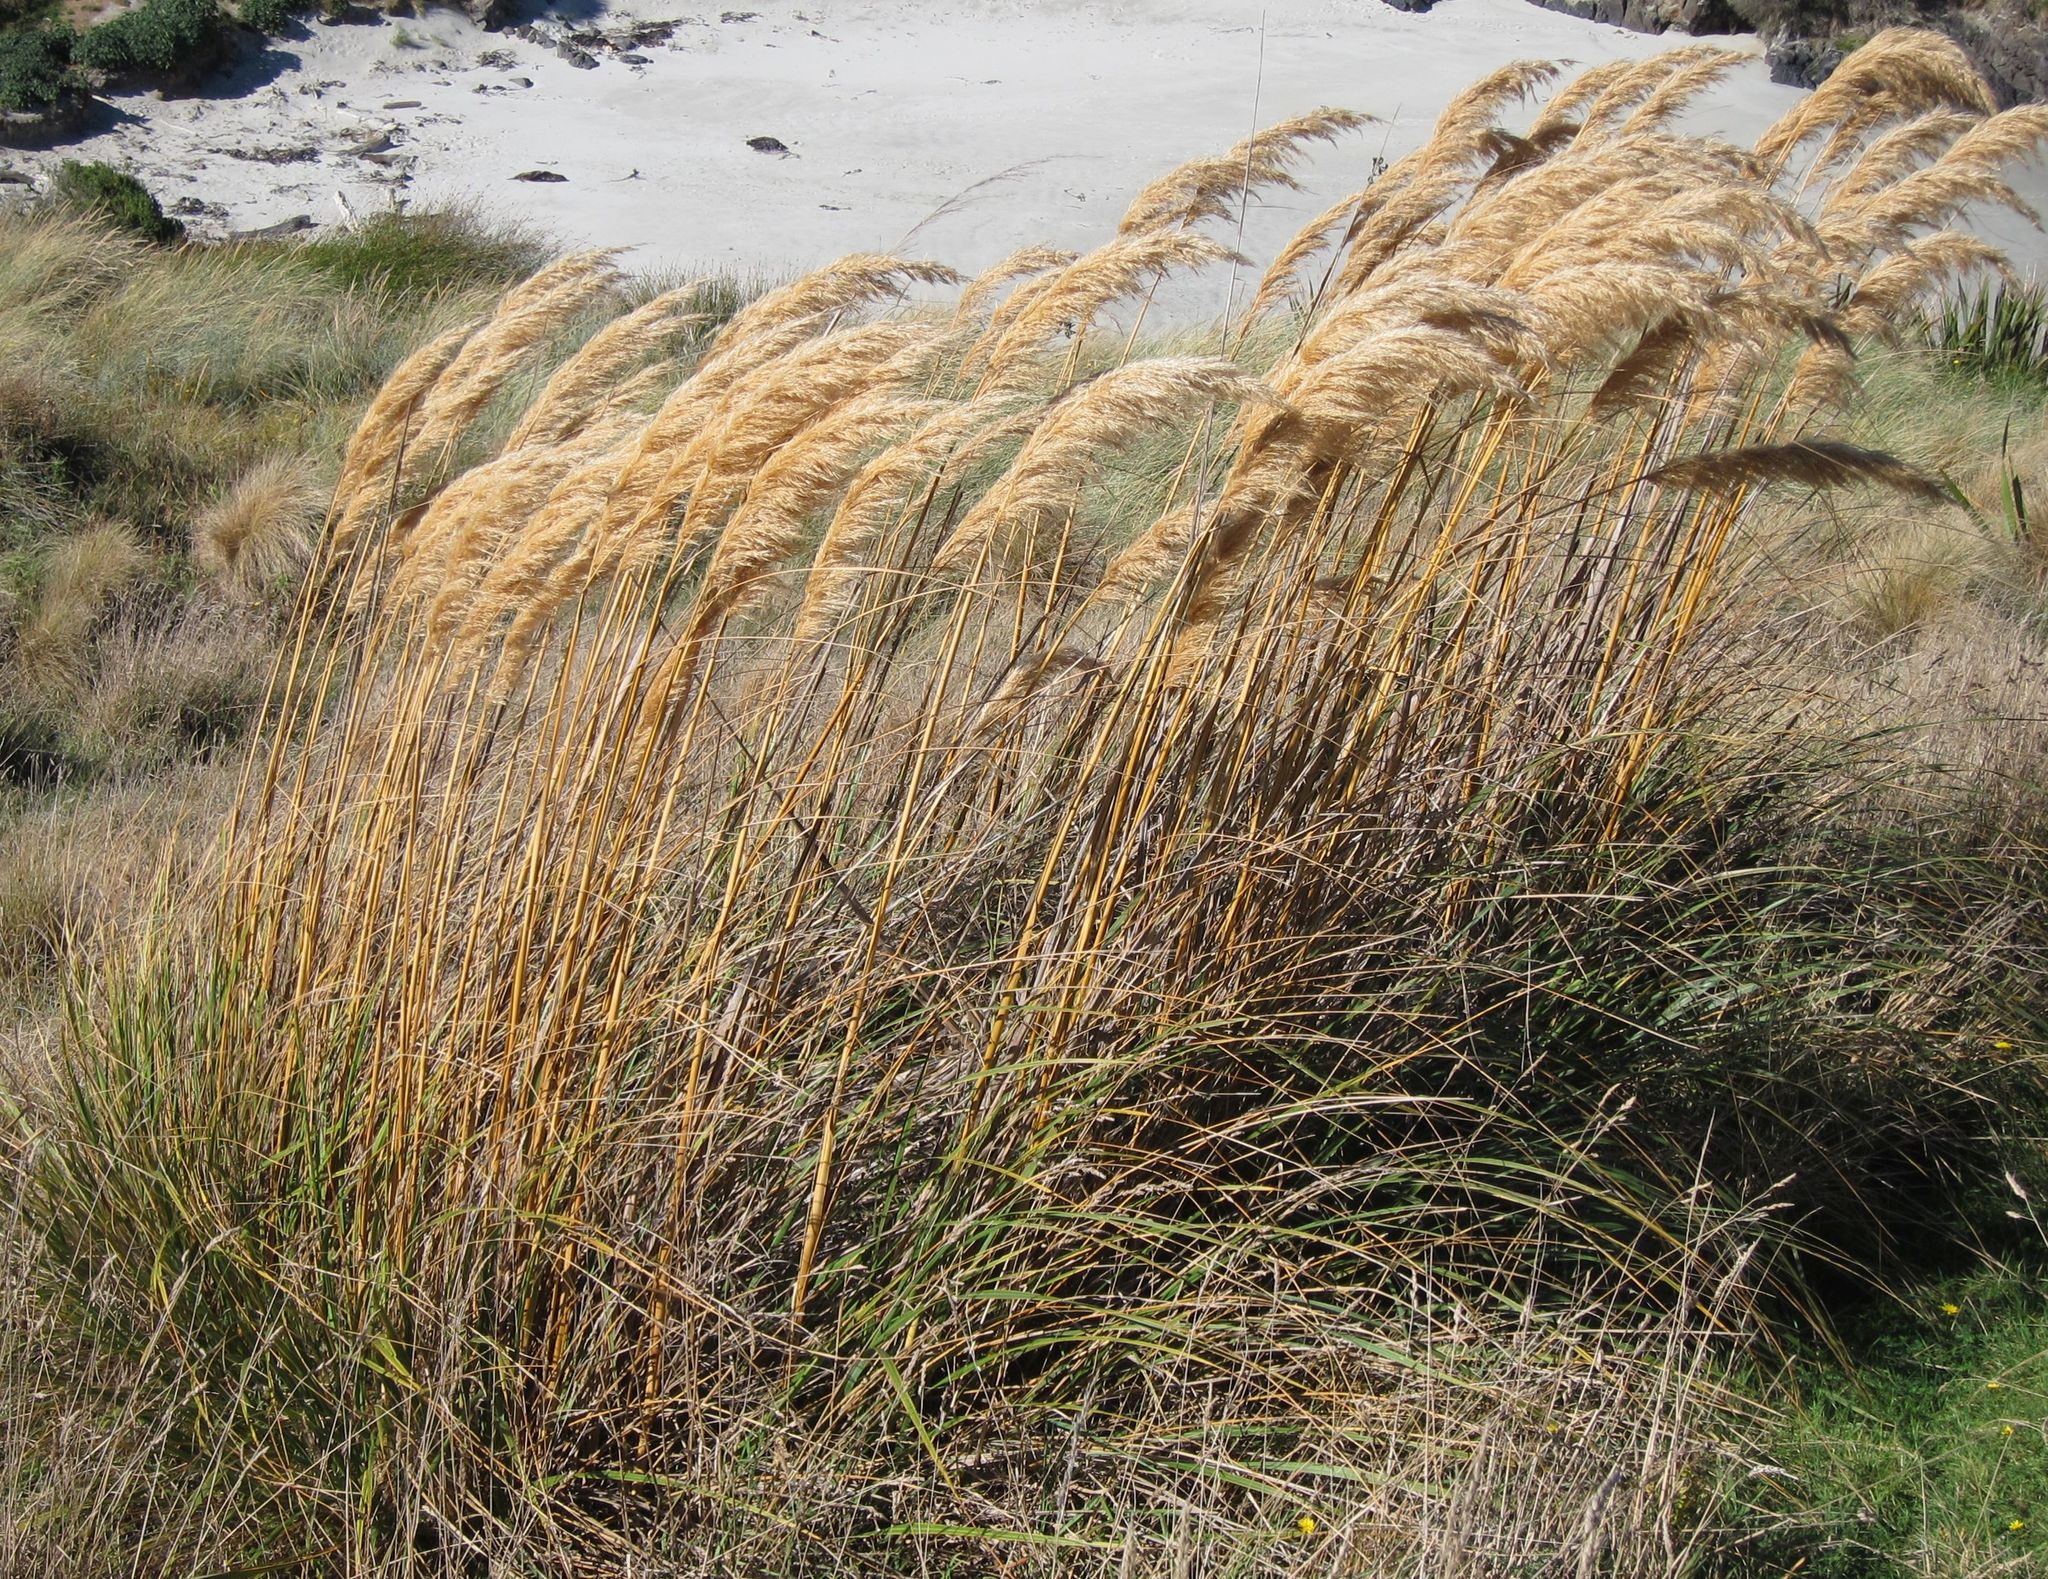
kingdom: Plantae
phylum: Tracheophyta
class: Liliopsida
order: Poales
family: Poaceae
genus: Austroderia
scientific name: Austroderia richardii
